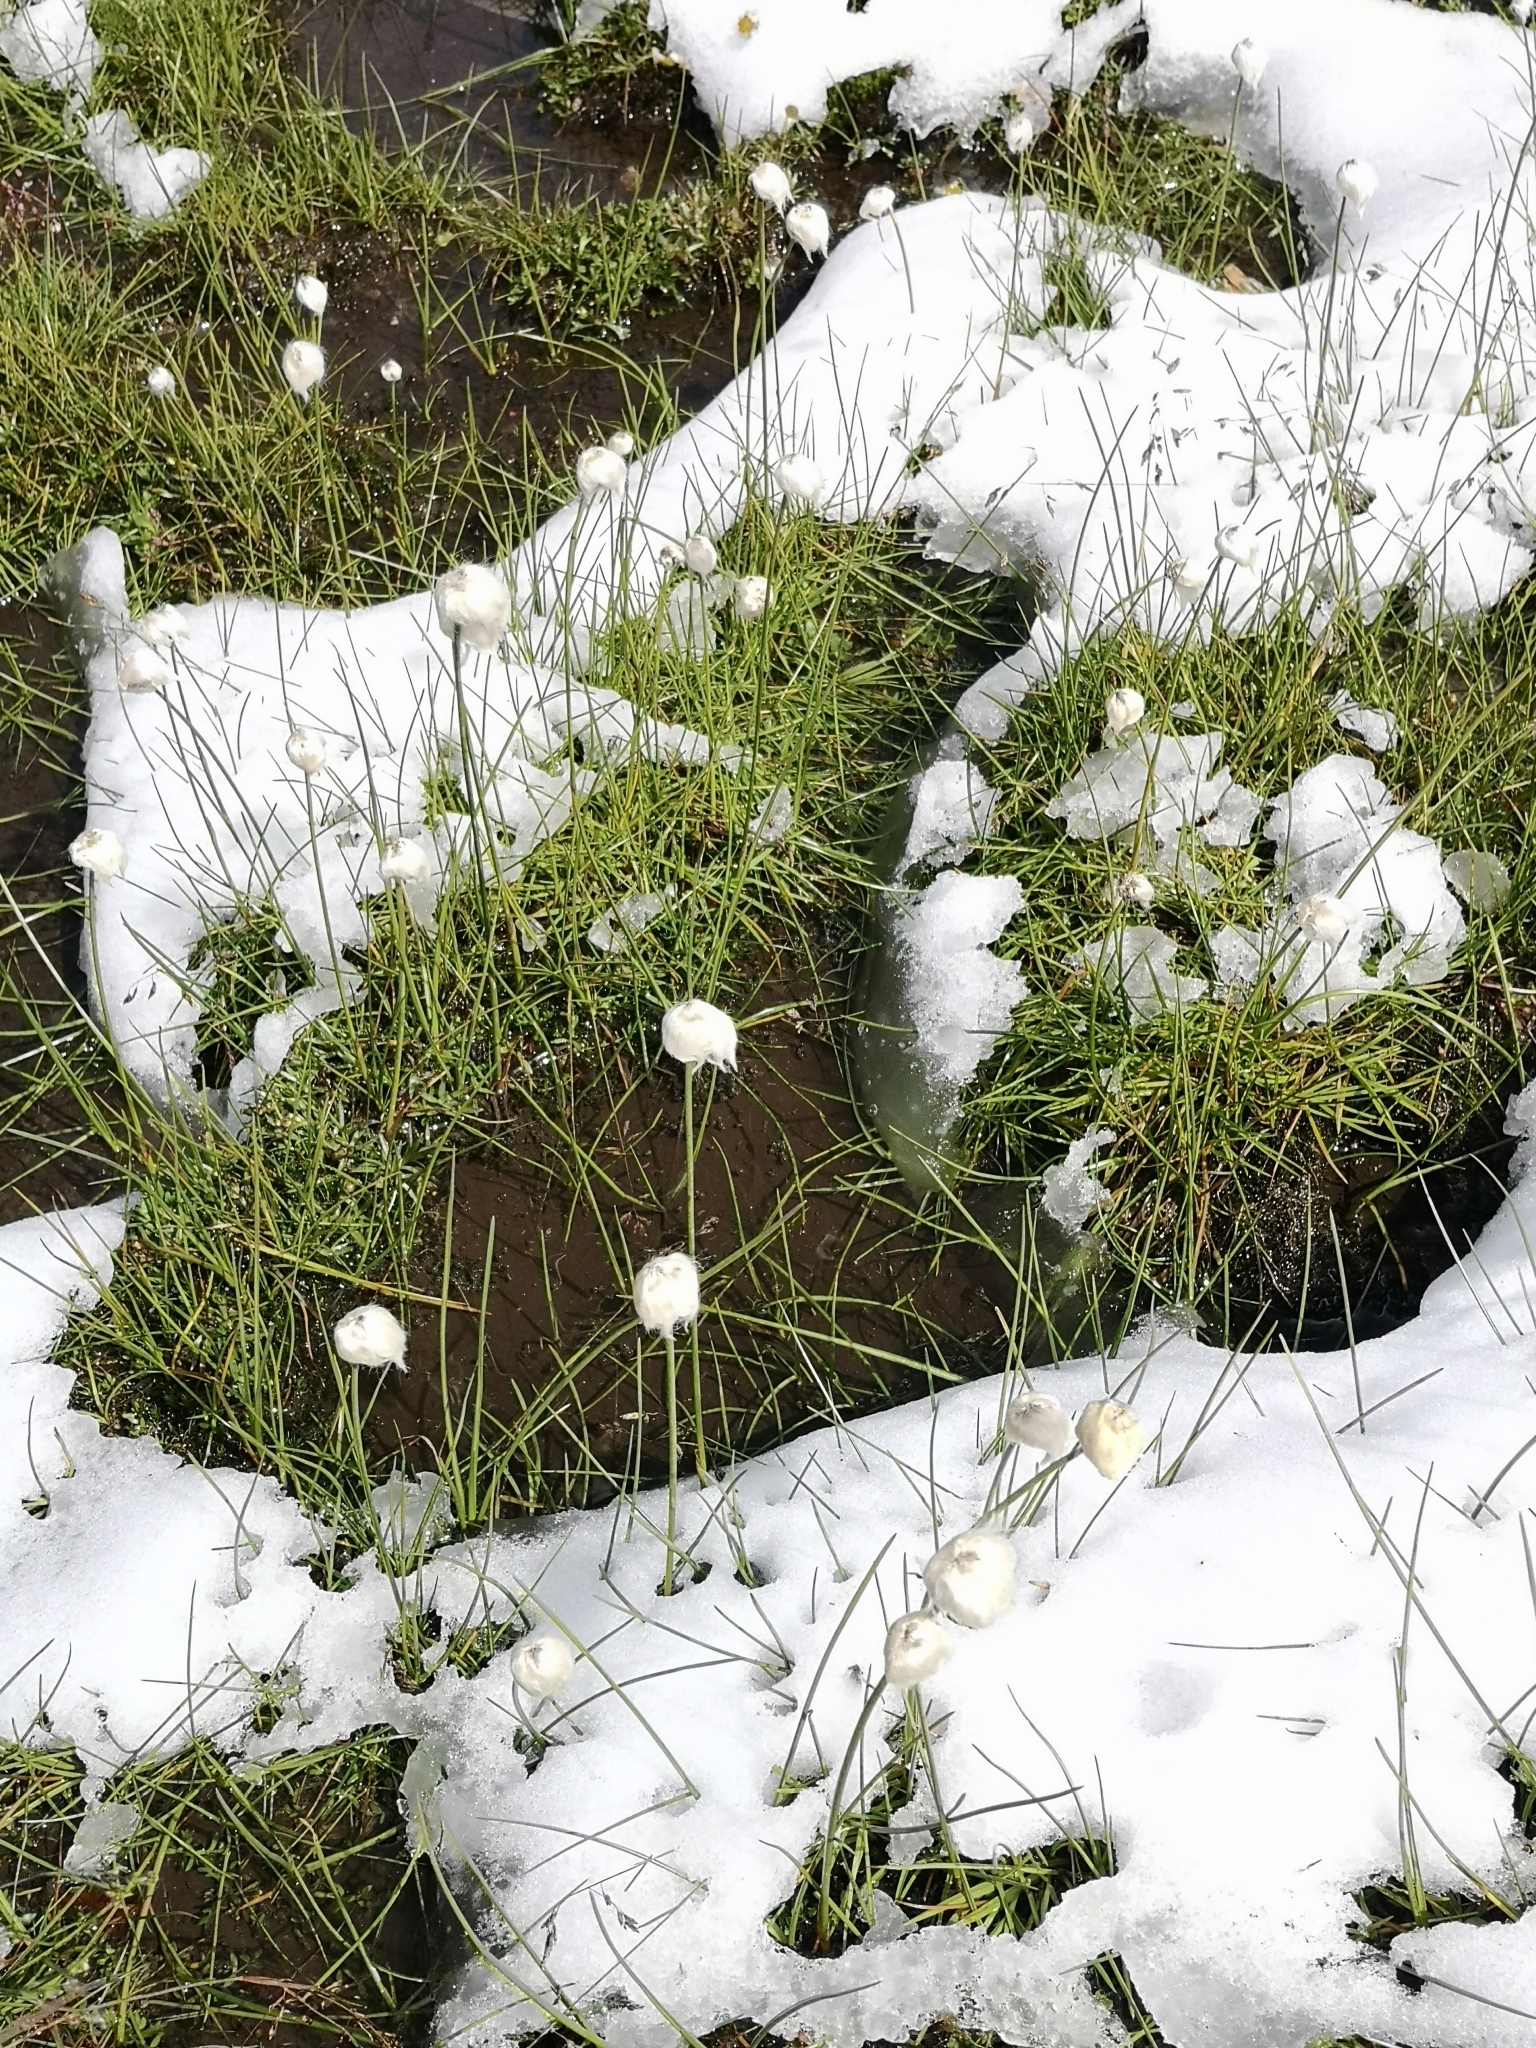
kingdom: Plantae
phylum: Tracheophyta
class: Liliopsida
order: Poales
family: Cyperaceae
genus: Eriophorum
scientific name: Eriophorum scheuchzeri
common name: Scheuchzer's cottongrass
